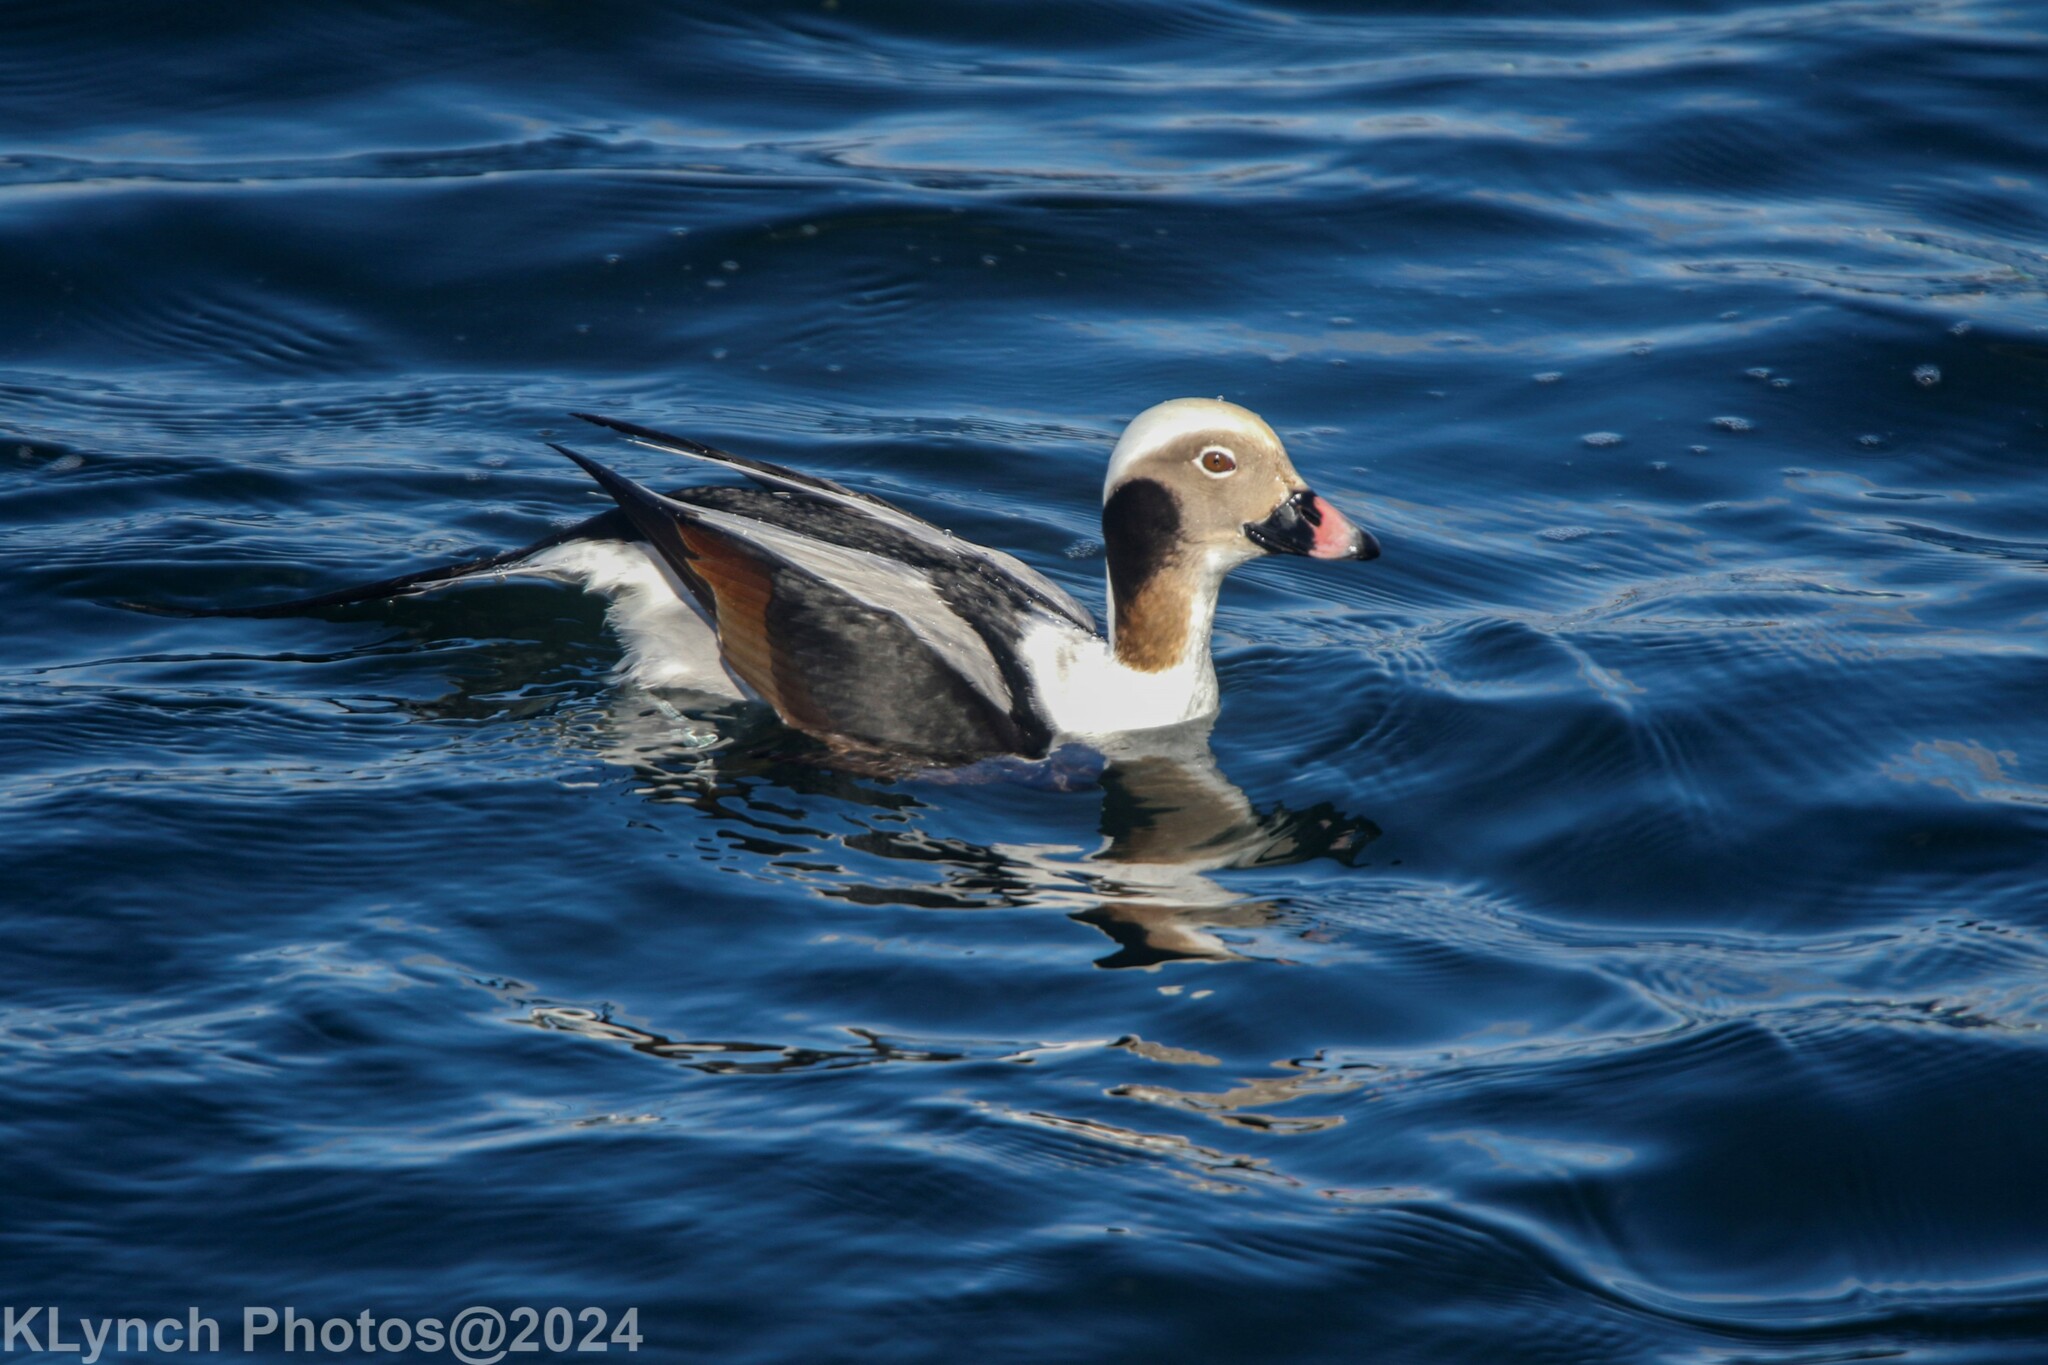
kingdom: Animalia
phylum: Chordata
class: Aves
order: Anseriformes
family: Anatidae
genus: Clangula
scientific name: Clangula hyemalis
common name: Long-tailed duck
